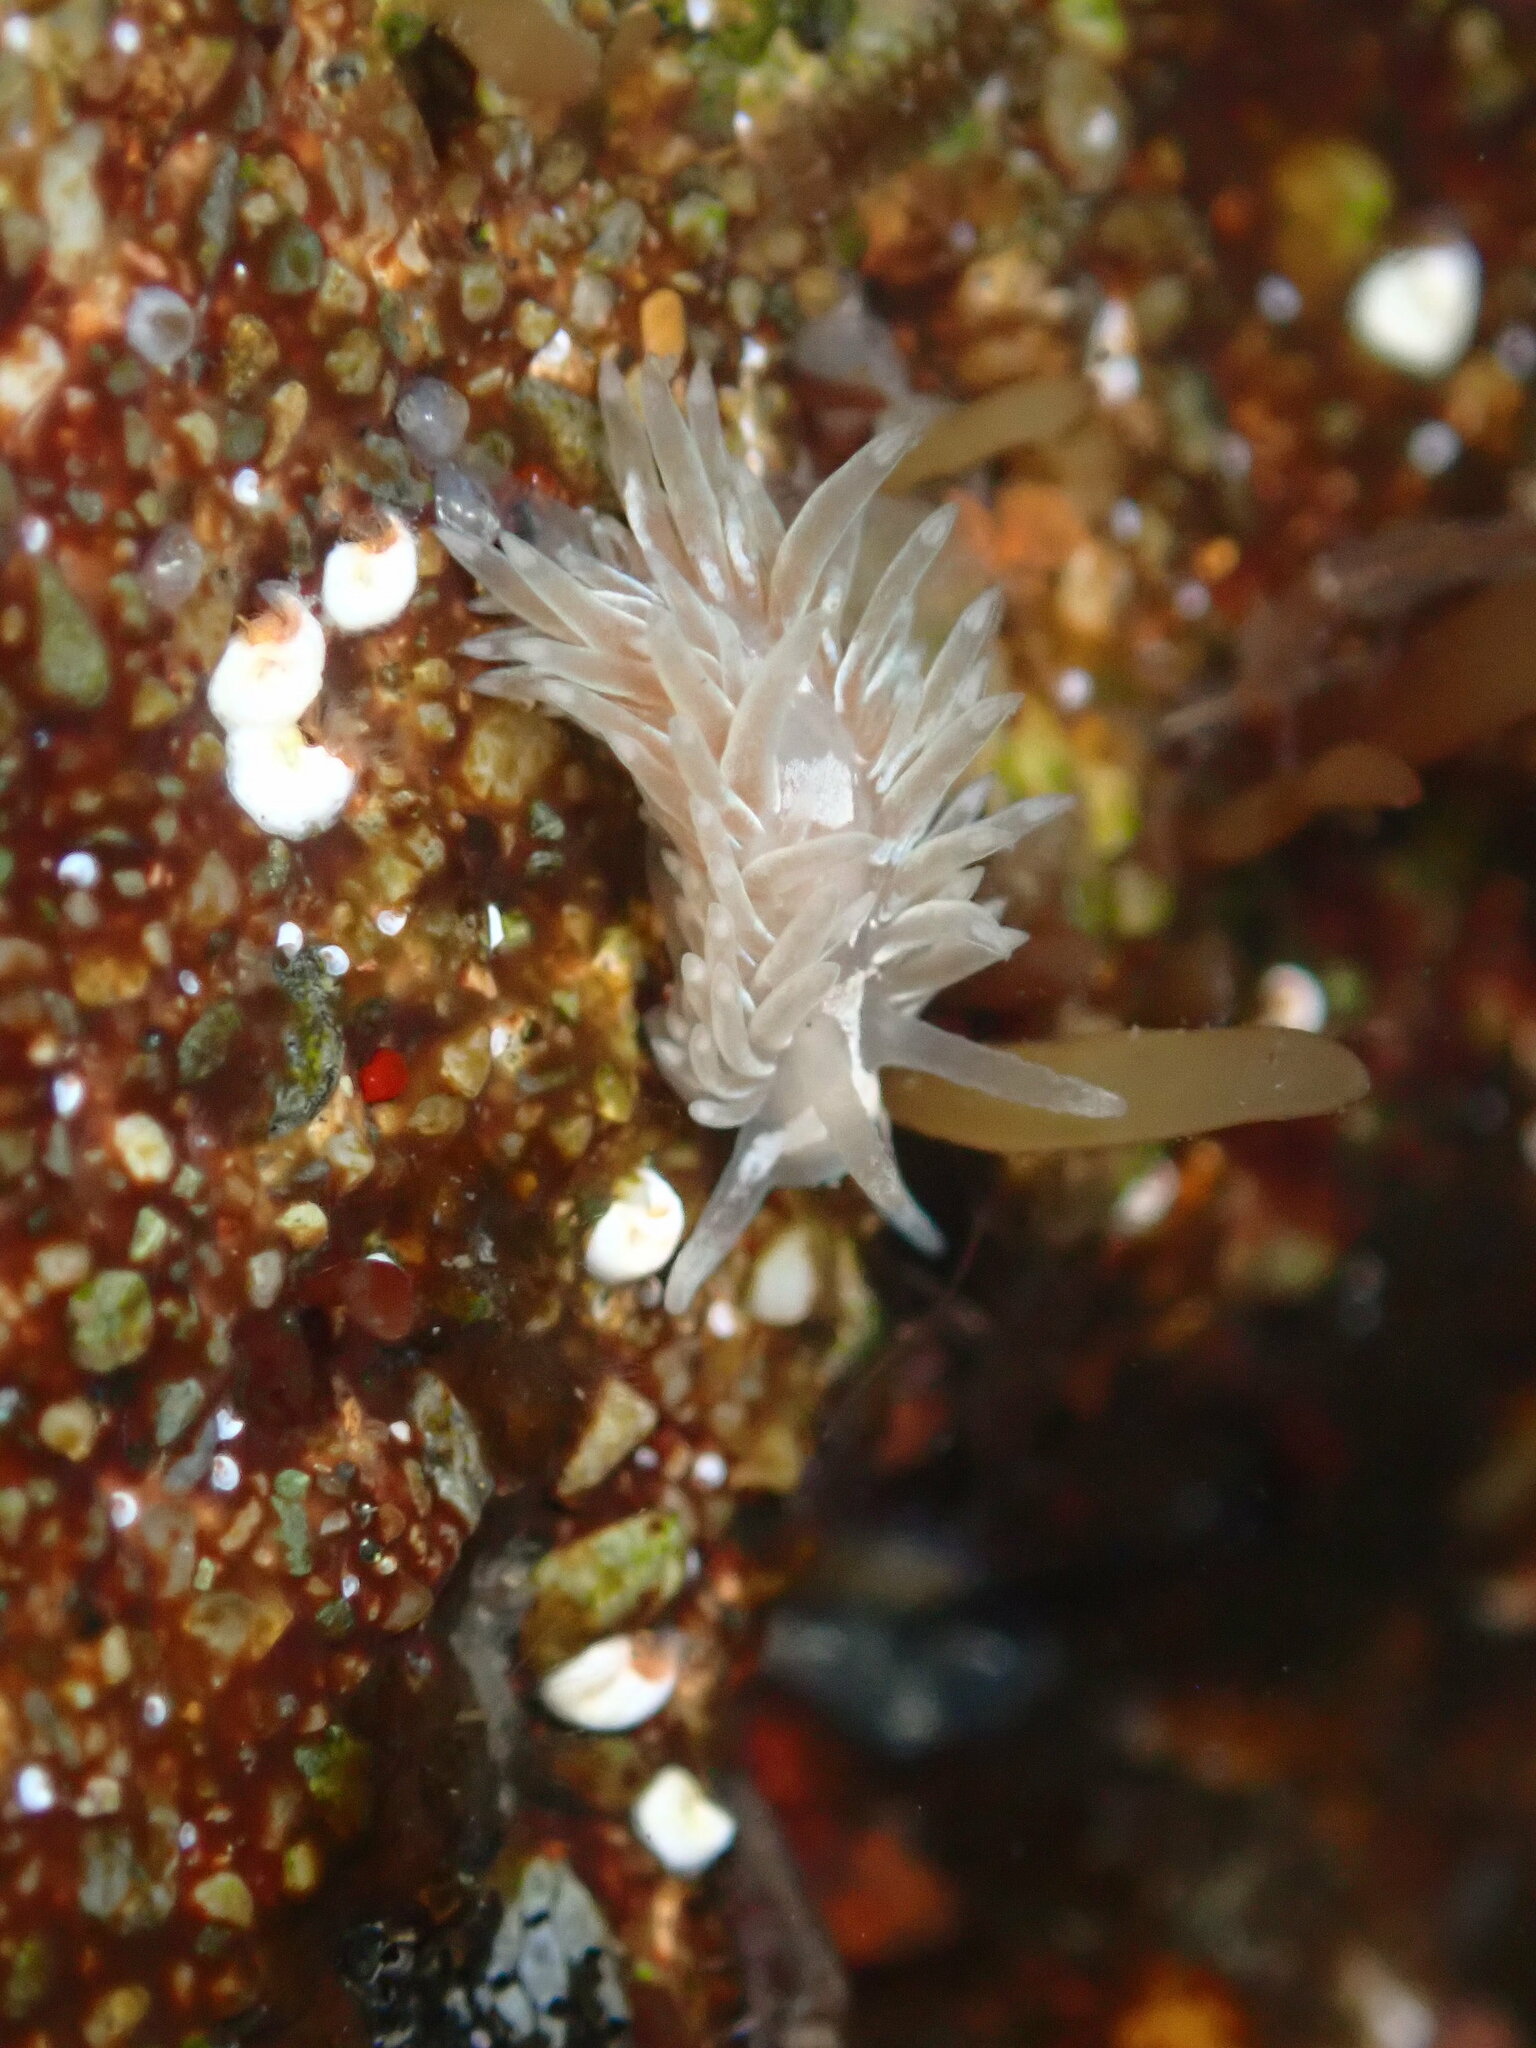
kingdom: Animalia
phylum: Mollusca
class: Gastropoda
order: Nudibranchia
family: Aeolidiidae
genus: Aeolidia
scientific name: Aeolidia loui
